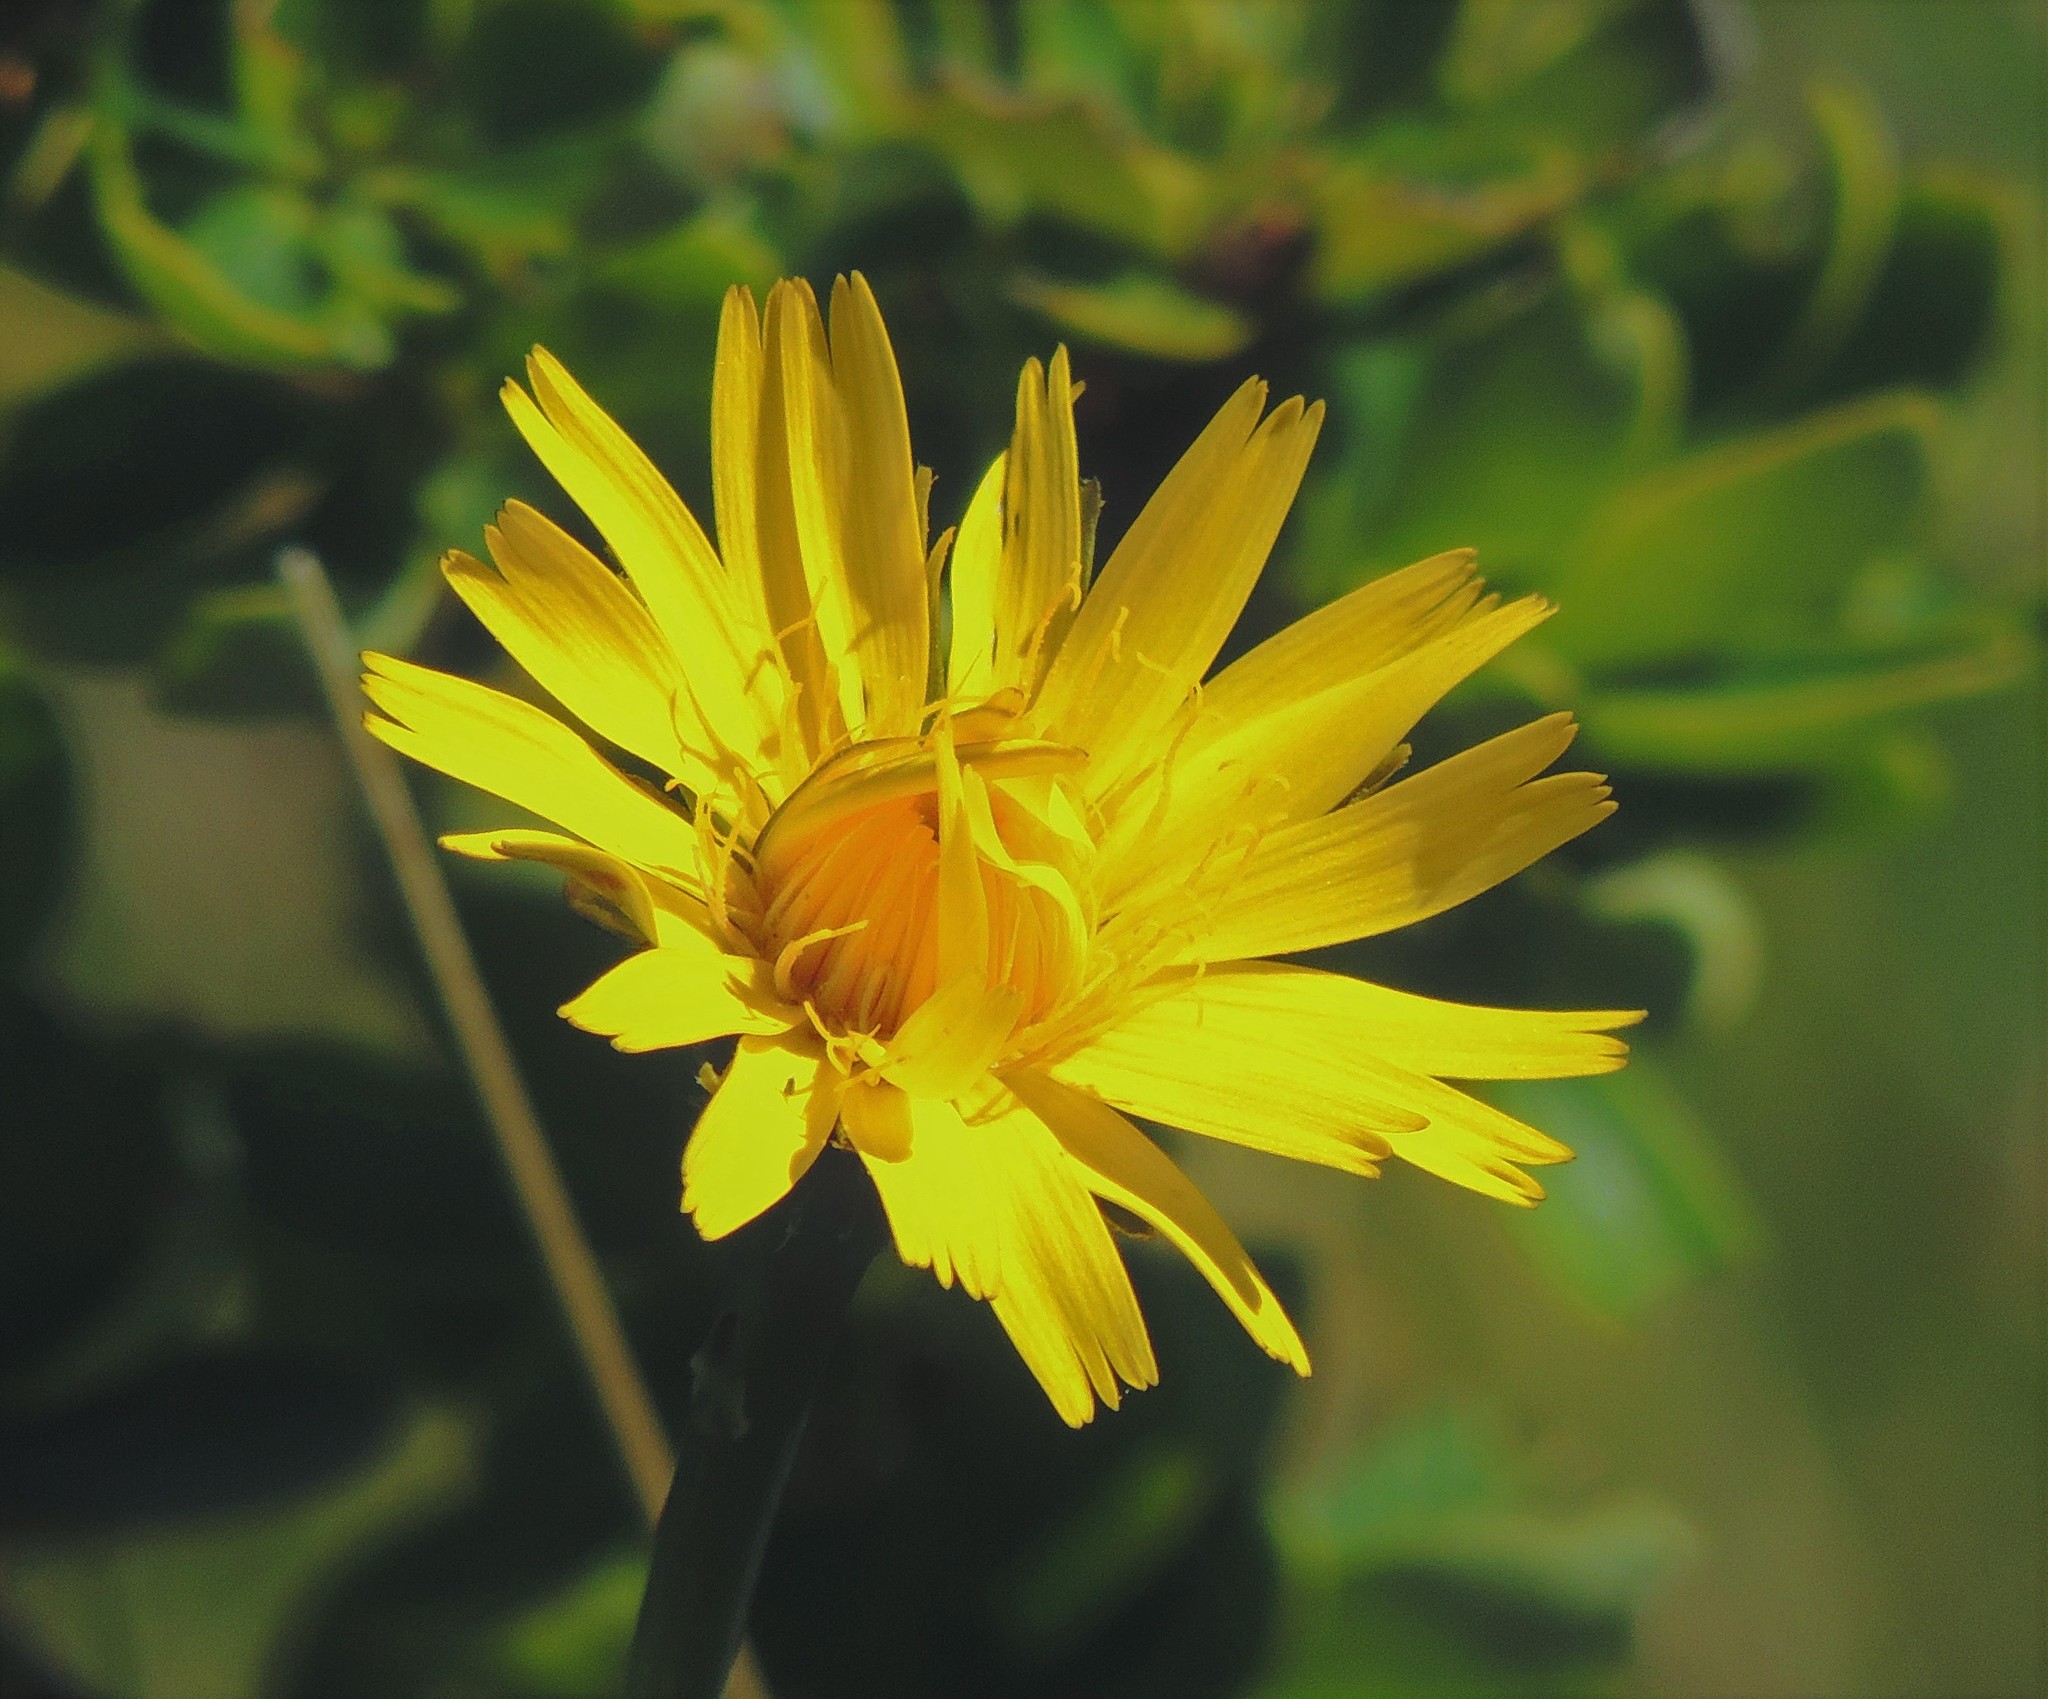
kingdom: Plantae
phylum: Tracheophyta
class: Magnoliopsida
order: Asterales
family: Asteraceae
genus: Hypochaeris
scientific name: Hypochaeris radicata
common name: Flatweed
